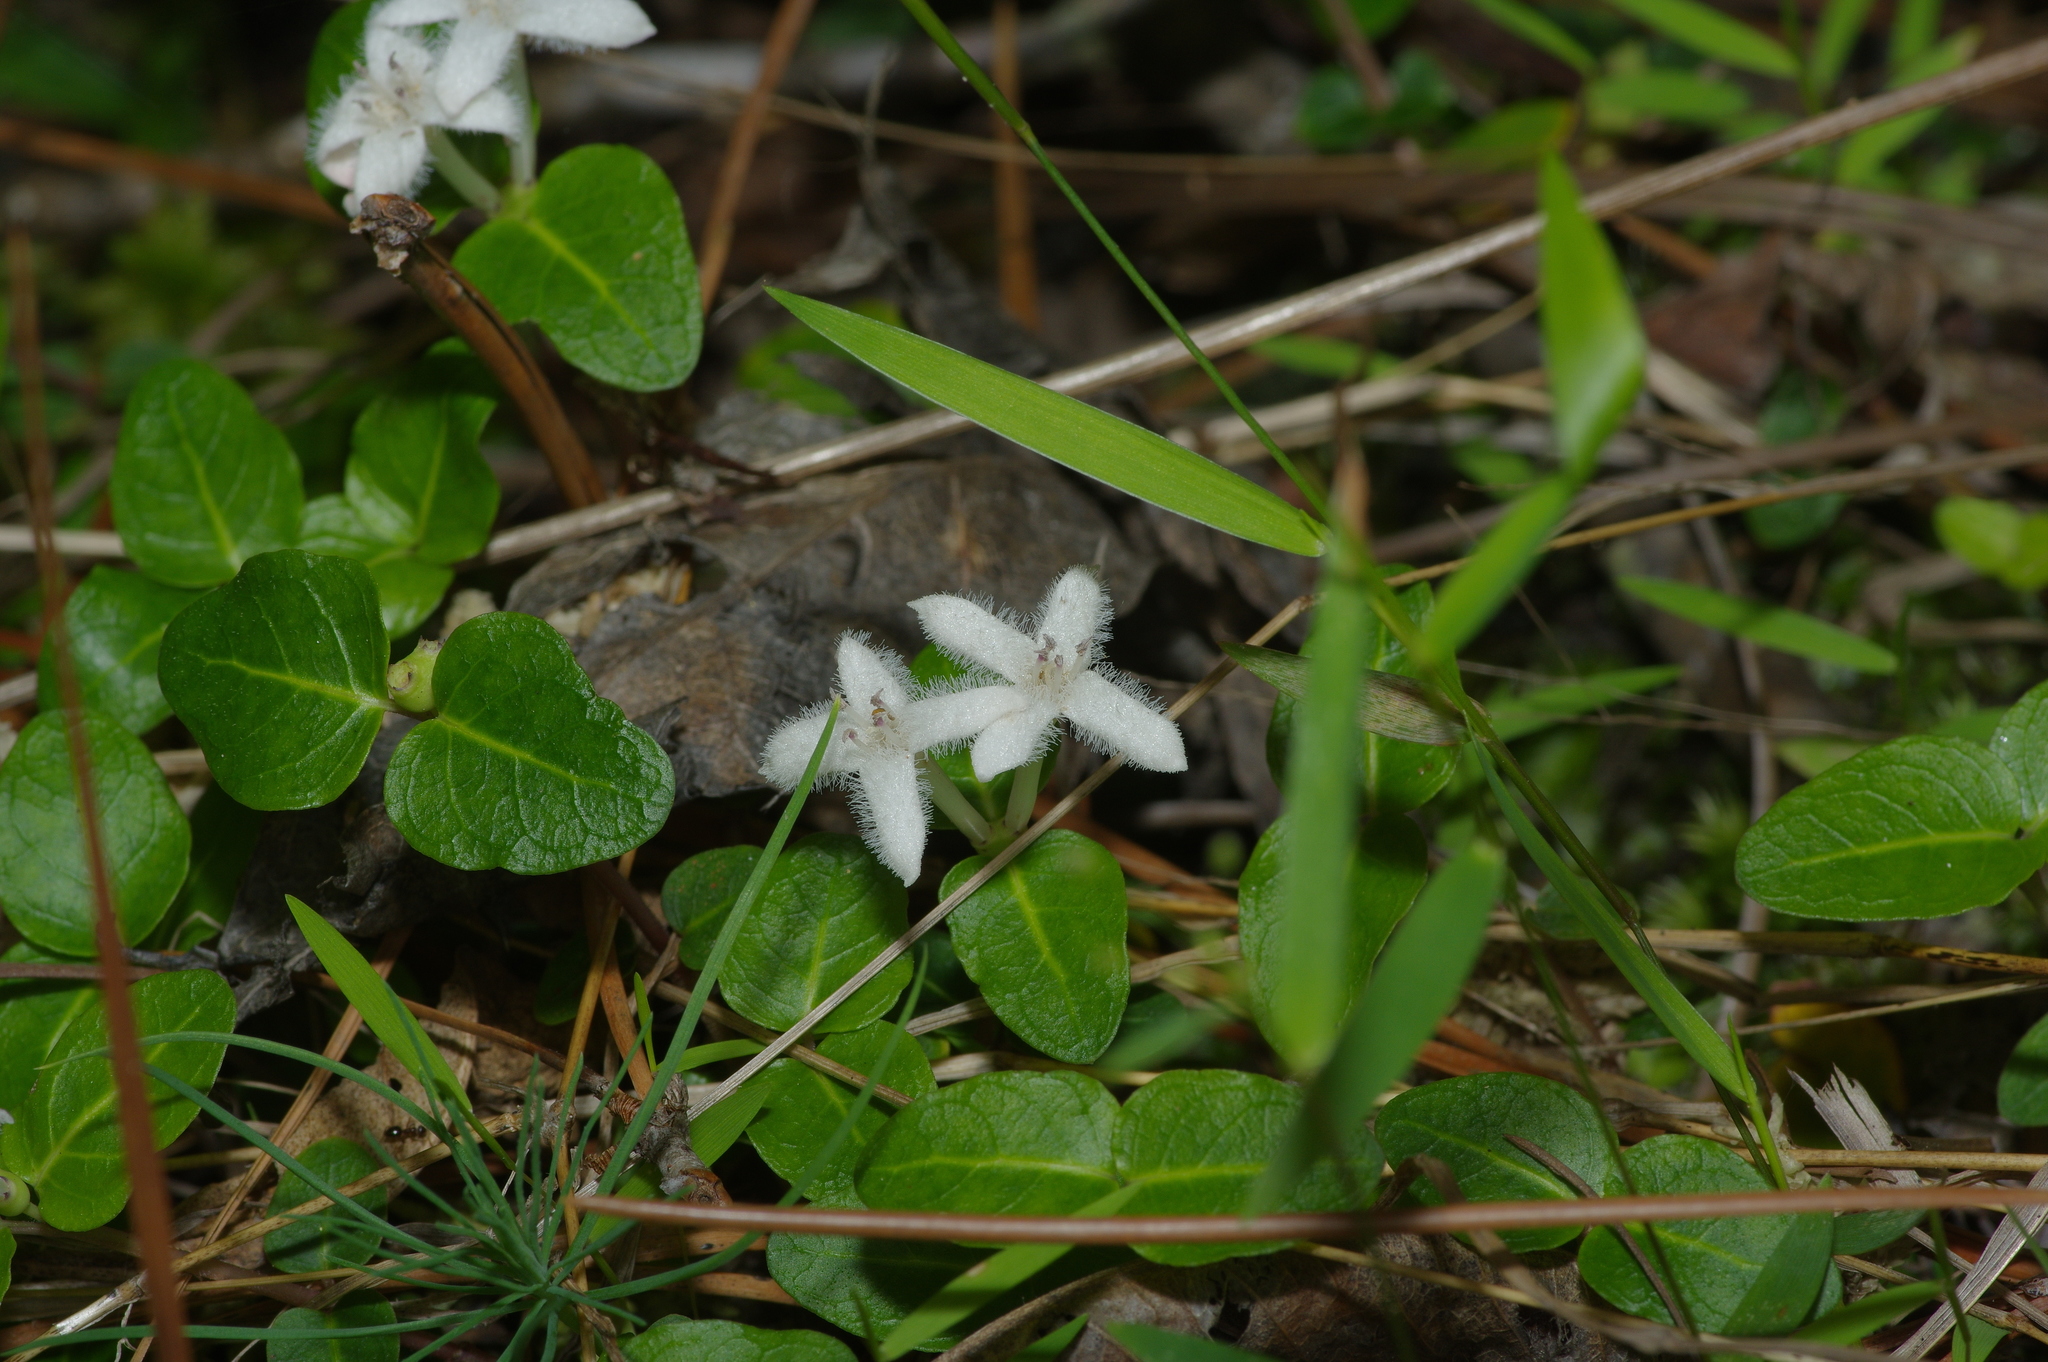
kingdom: Plantae
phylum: Tracheophyta
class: Magnoliopsida
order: Gentianales
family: Rubiaceae
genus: Mitchella
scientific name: Mitchella repens
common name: Partridge-berry
